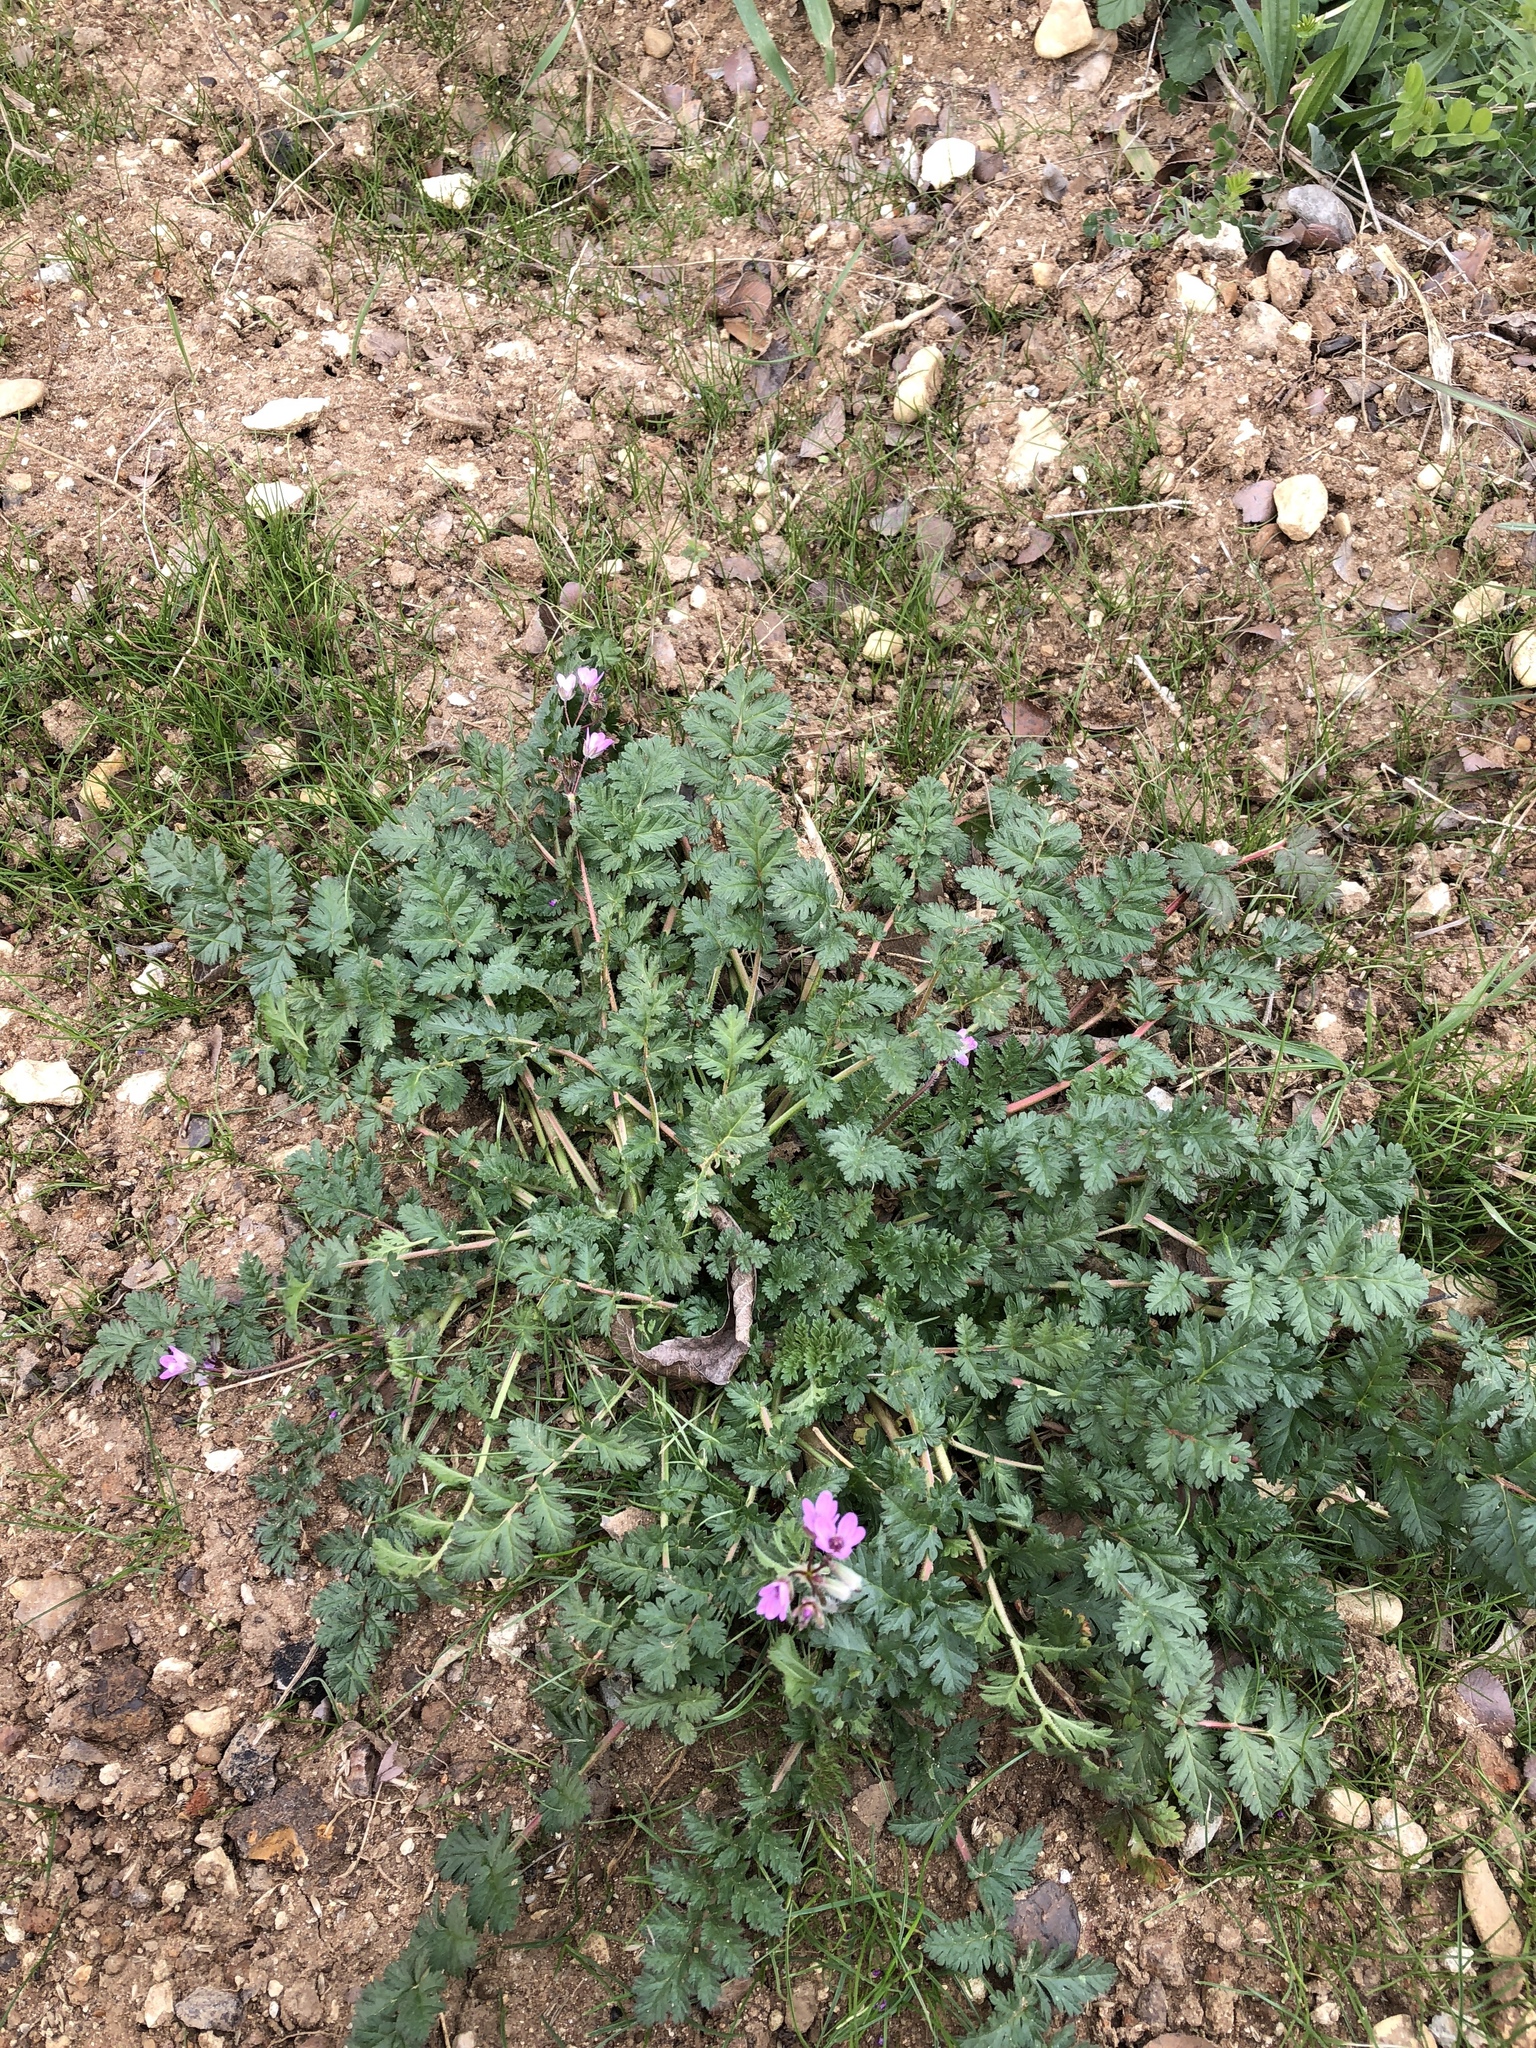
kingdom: Plantae
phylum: Tracheophyta
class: Magnoliopsida
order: Geraniales
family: Geraniaceae
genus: Erodium
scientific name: Erodium cicutarium
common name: Common stork's-bill
